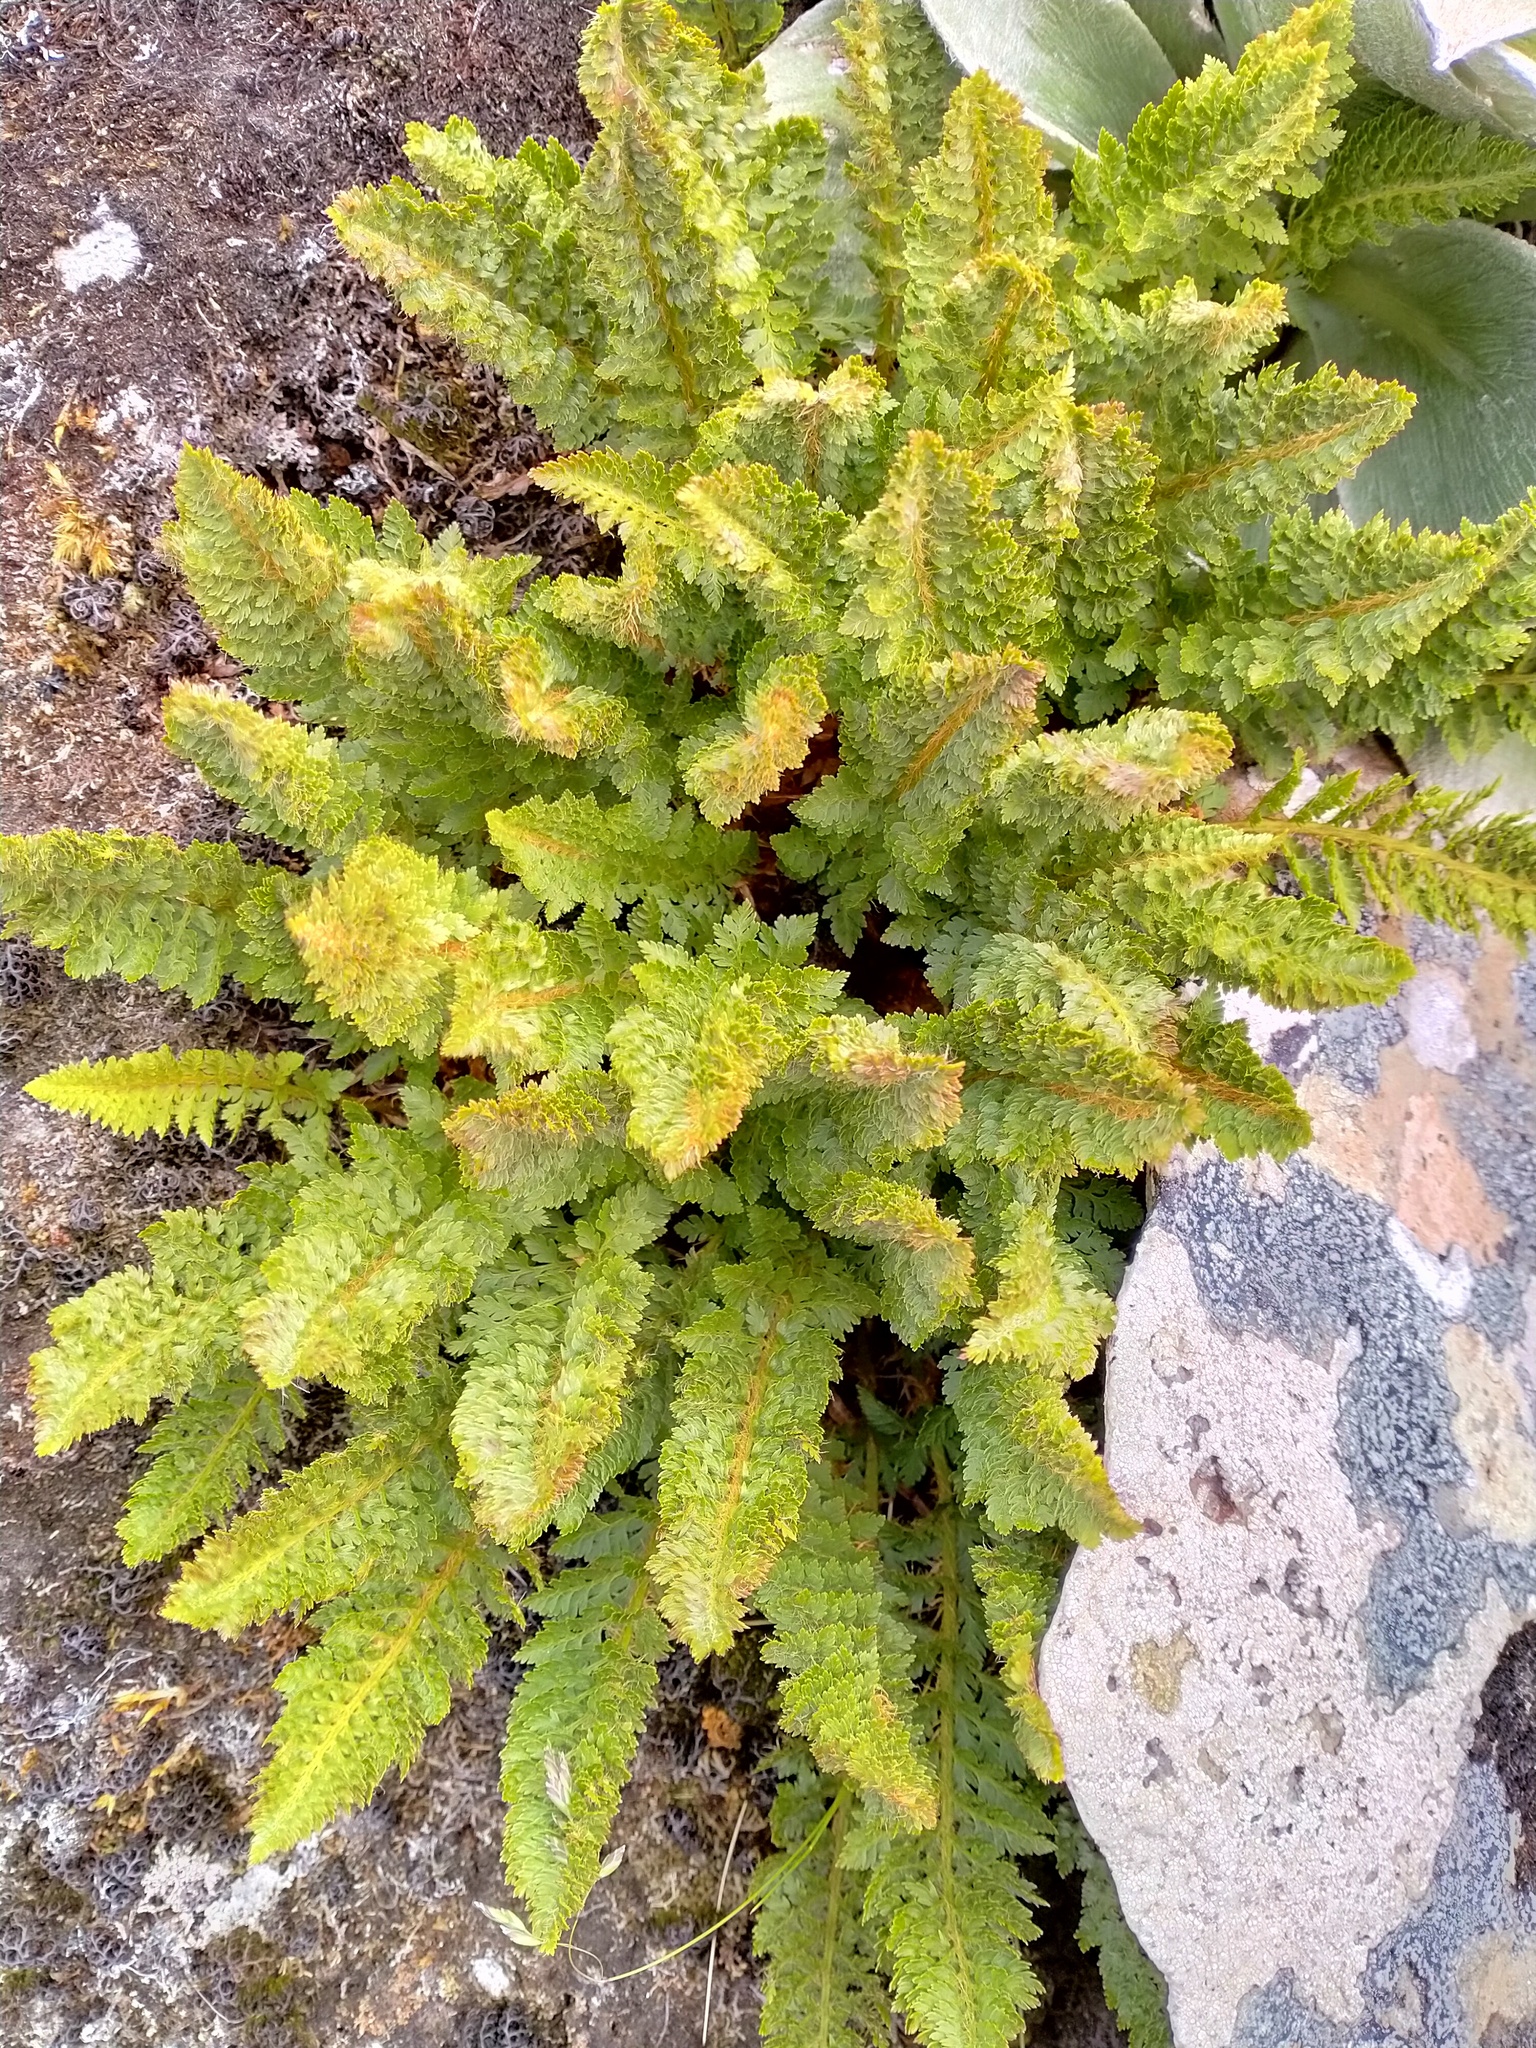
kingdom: Plantae
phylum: Tracheophyta
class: Polypodiopsida
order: Polypodiales
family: Dryopteridaceae
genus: Polystichum
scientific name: Polystichum cystostegia
